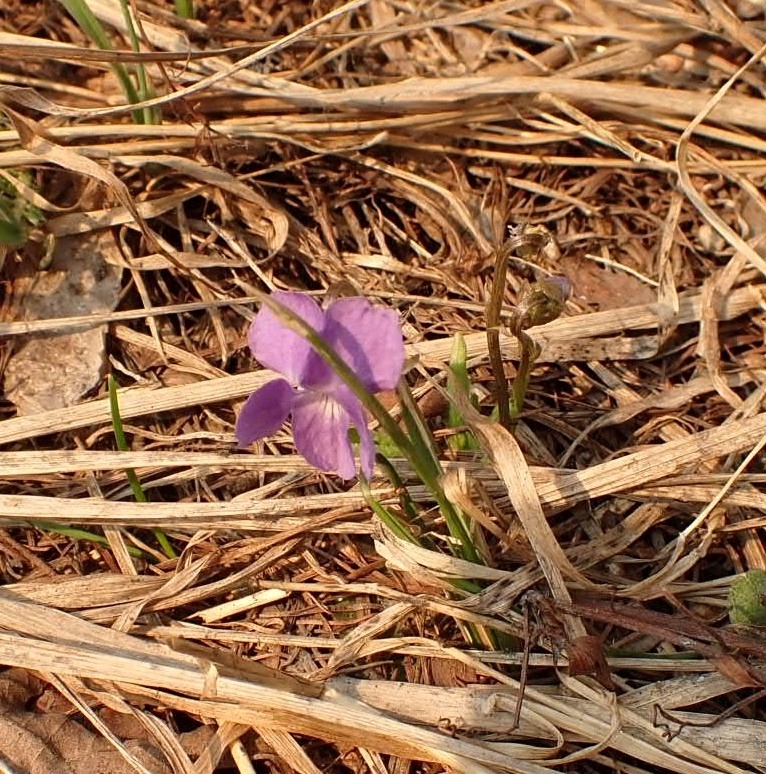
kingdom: Plantae
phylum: Tracheophyta
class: Magnoliopsida
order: Malpighiales
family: Violaceae
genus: Viola
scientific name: Viola hirta
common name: Hairy violet
